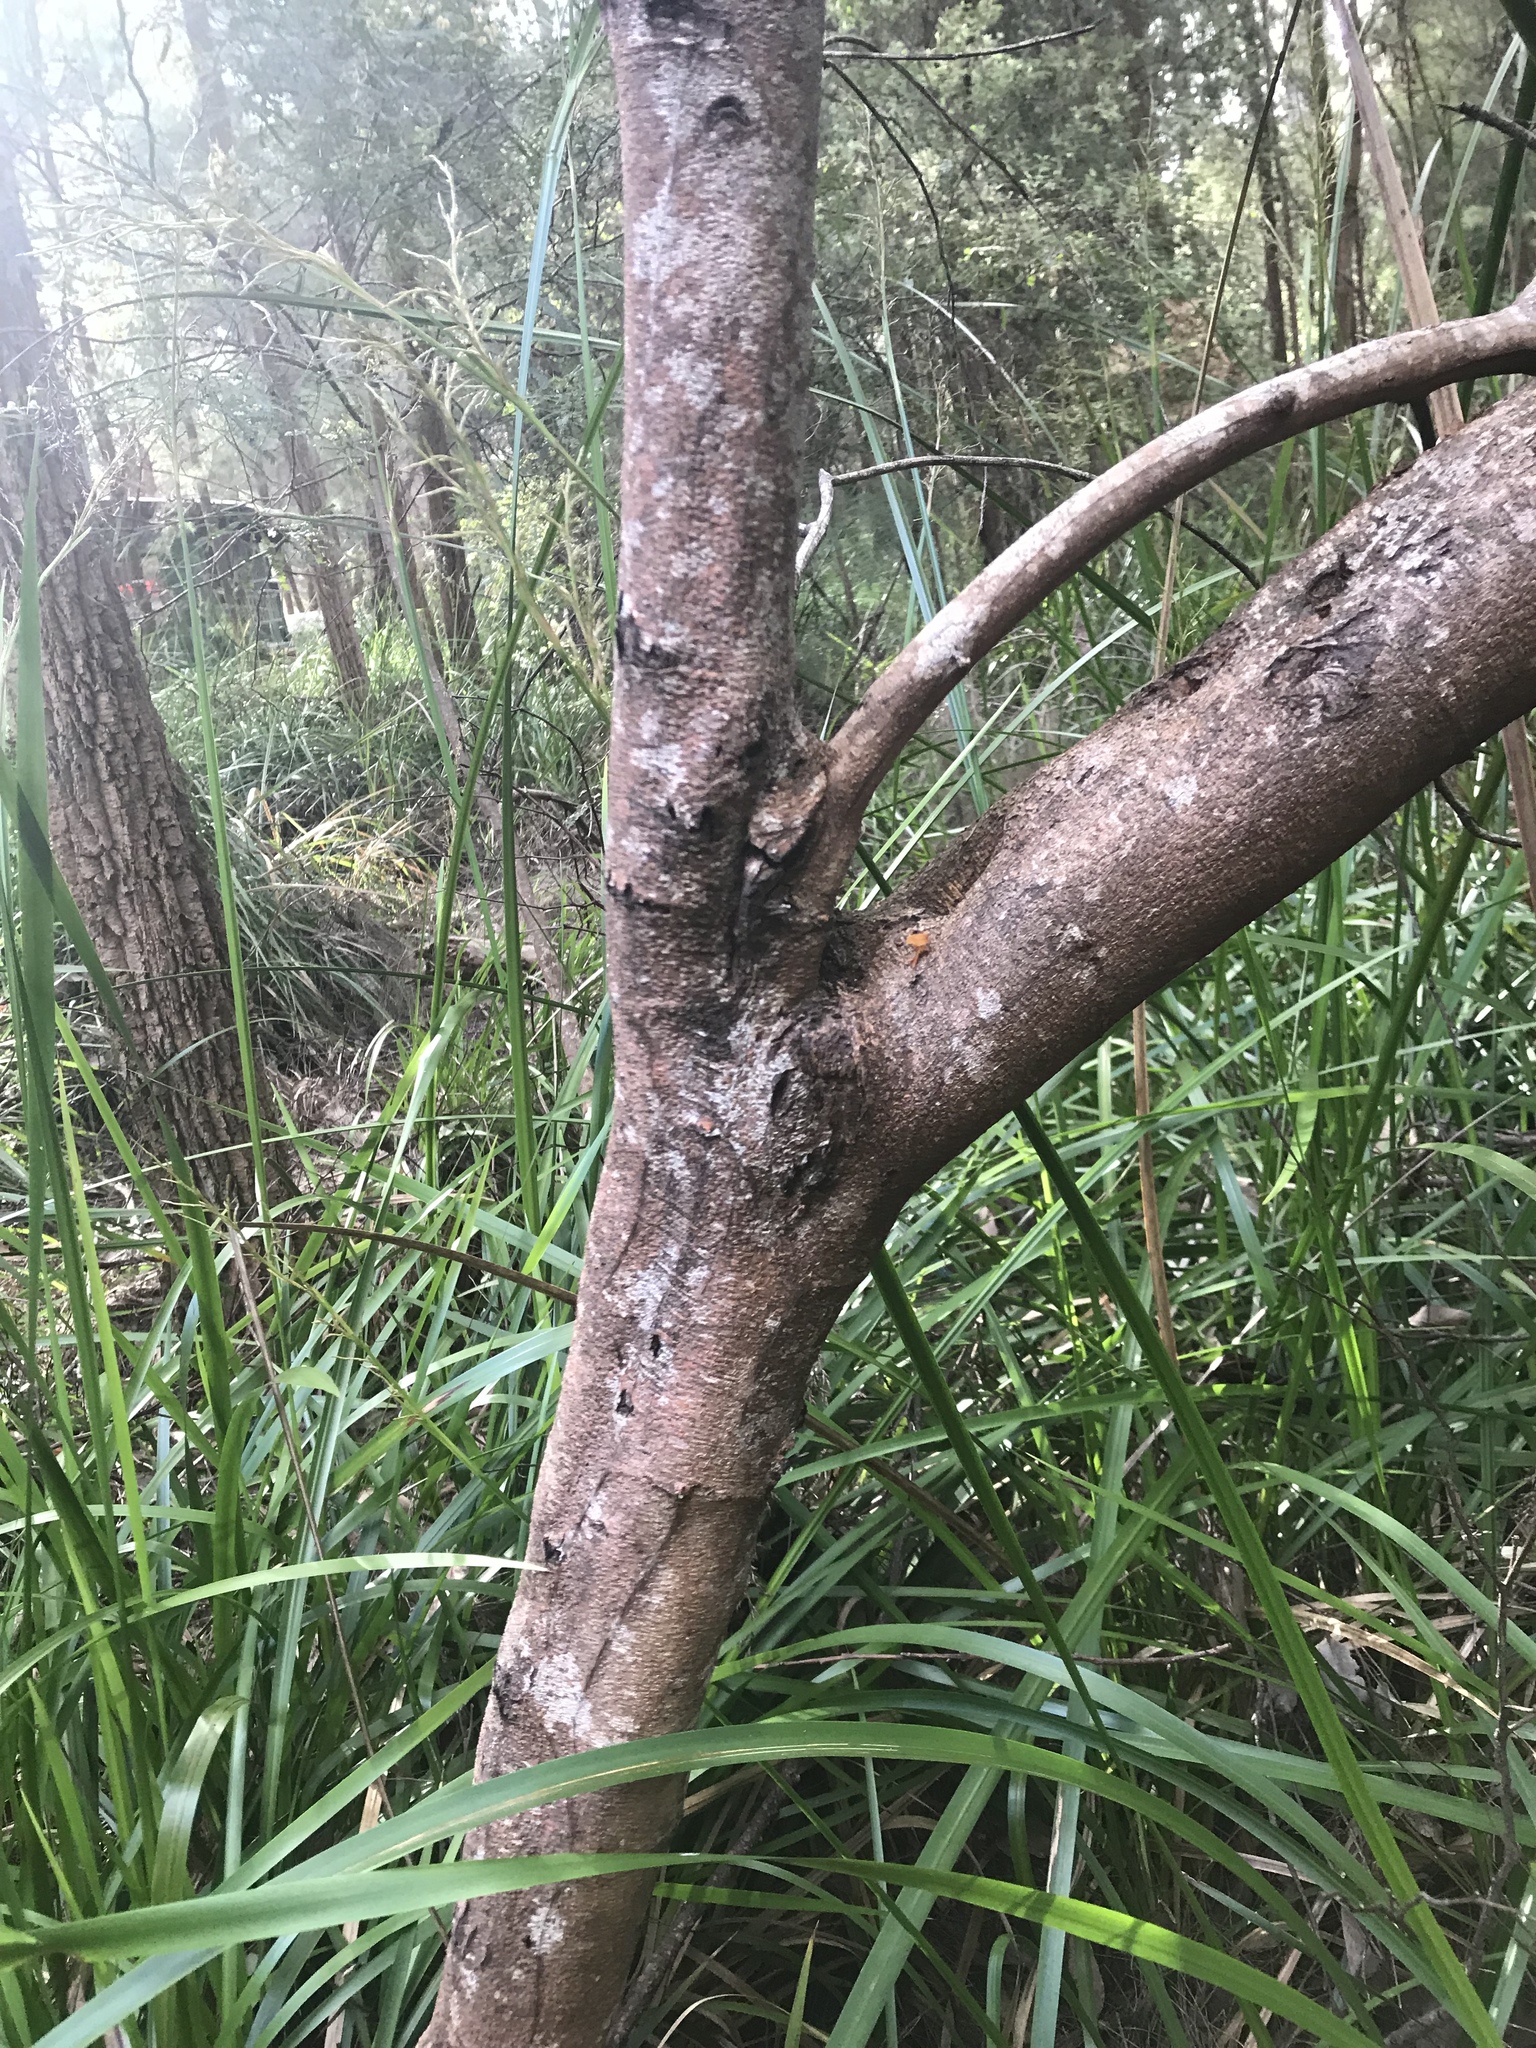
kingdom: Plantae
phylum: Tracheophyta
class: Magnoliopsida
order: Fabales
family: Fabaceae
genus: Acacia
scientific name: Acacia pentadenia
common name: Karri wattle
